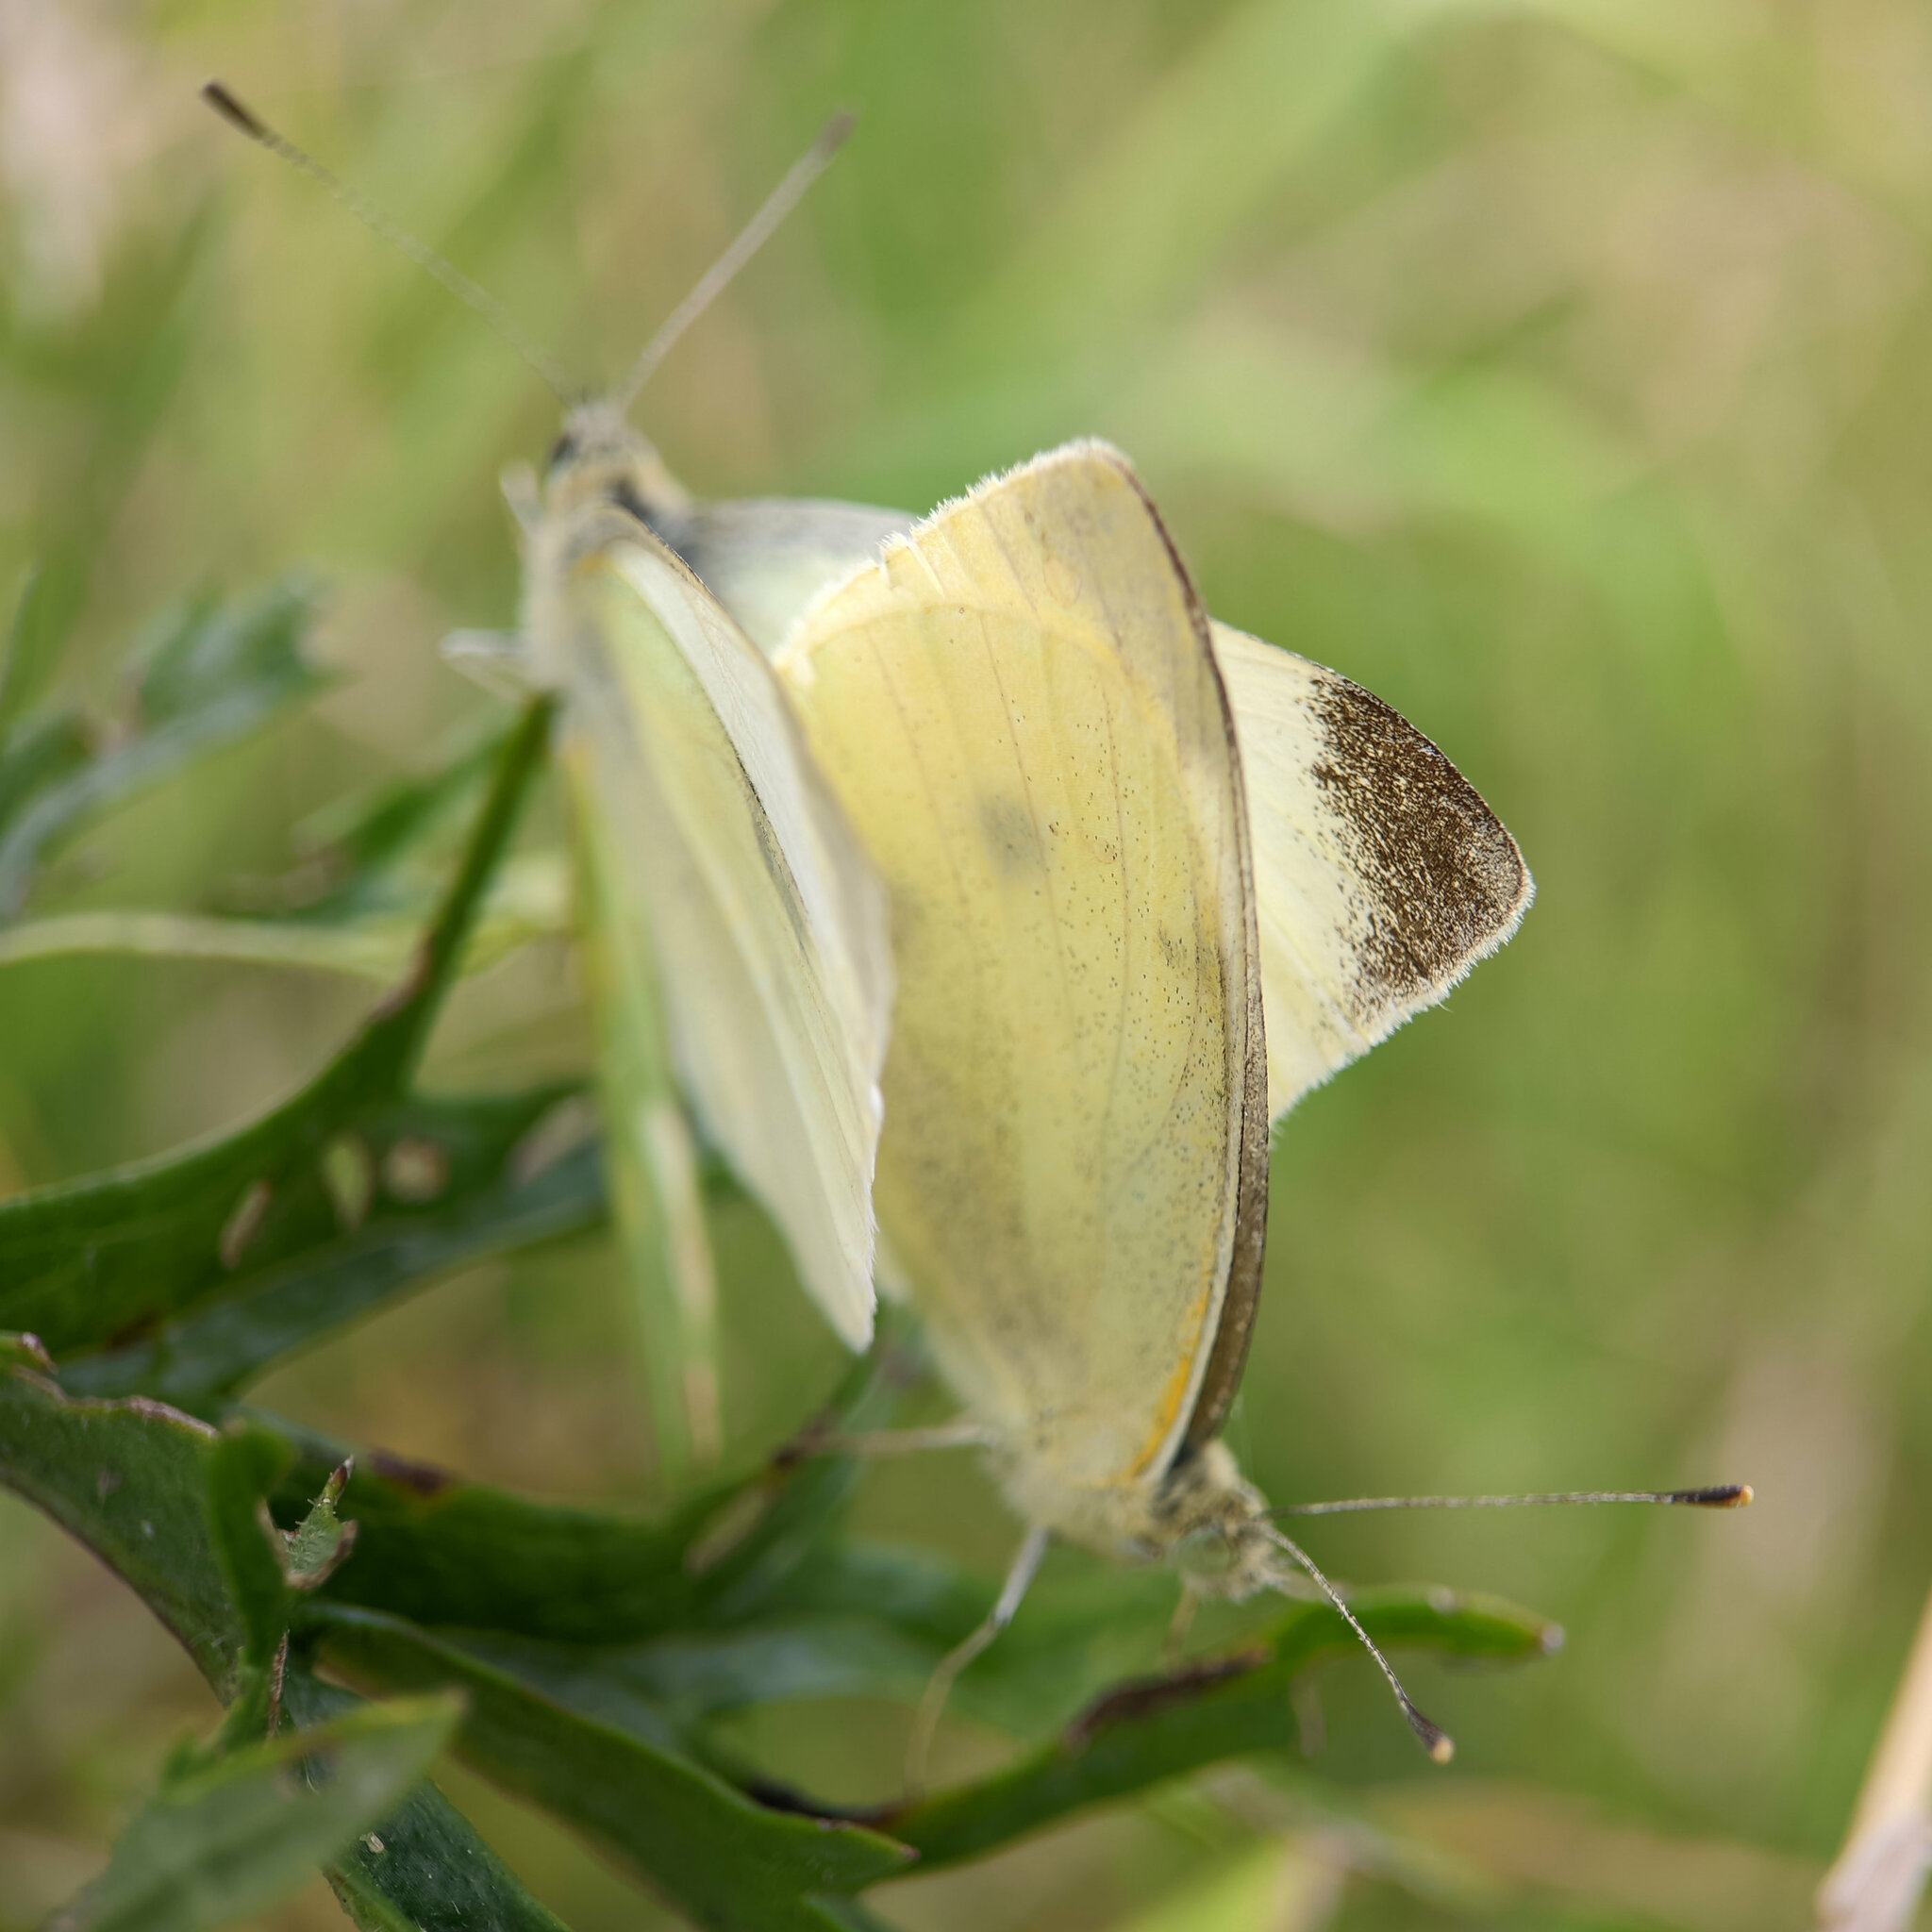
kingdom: Animalia
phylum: Arthropoda
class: Insecta
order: Lepidoptera
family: Pieridae
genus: Pieris
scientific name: Pieris rapae
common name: Small white
